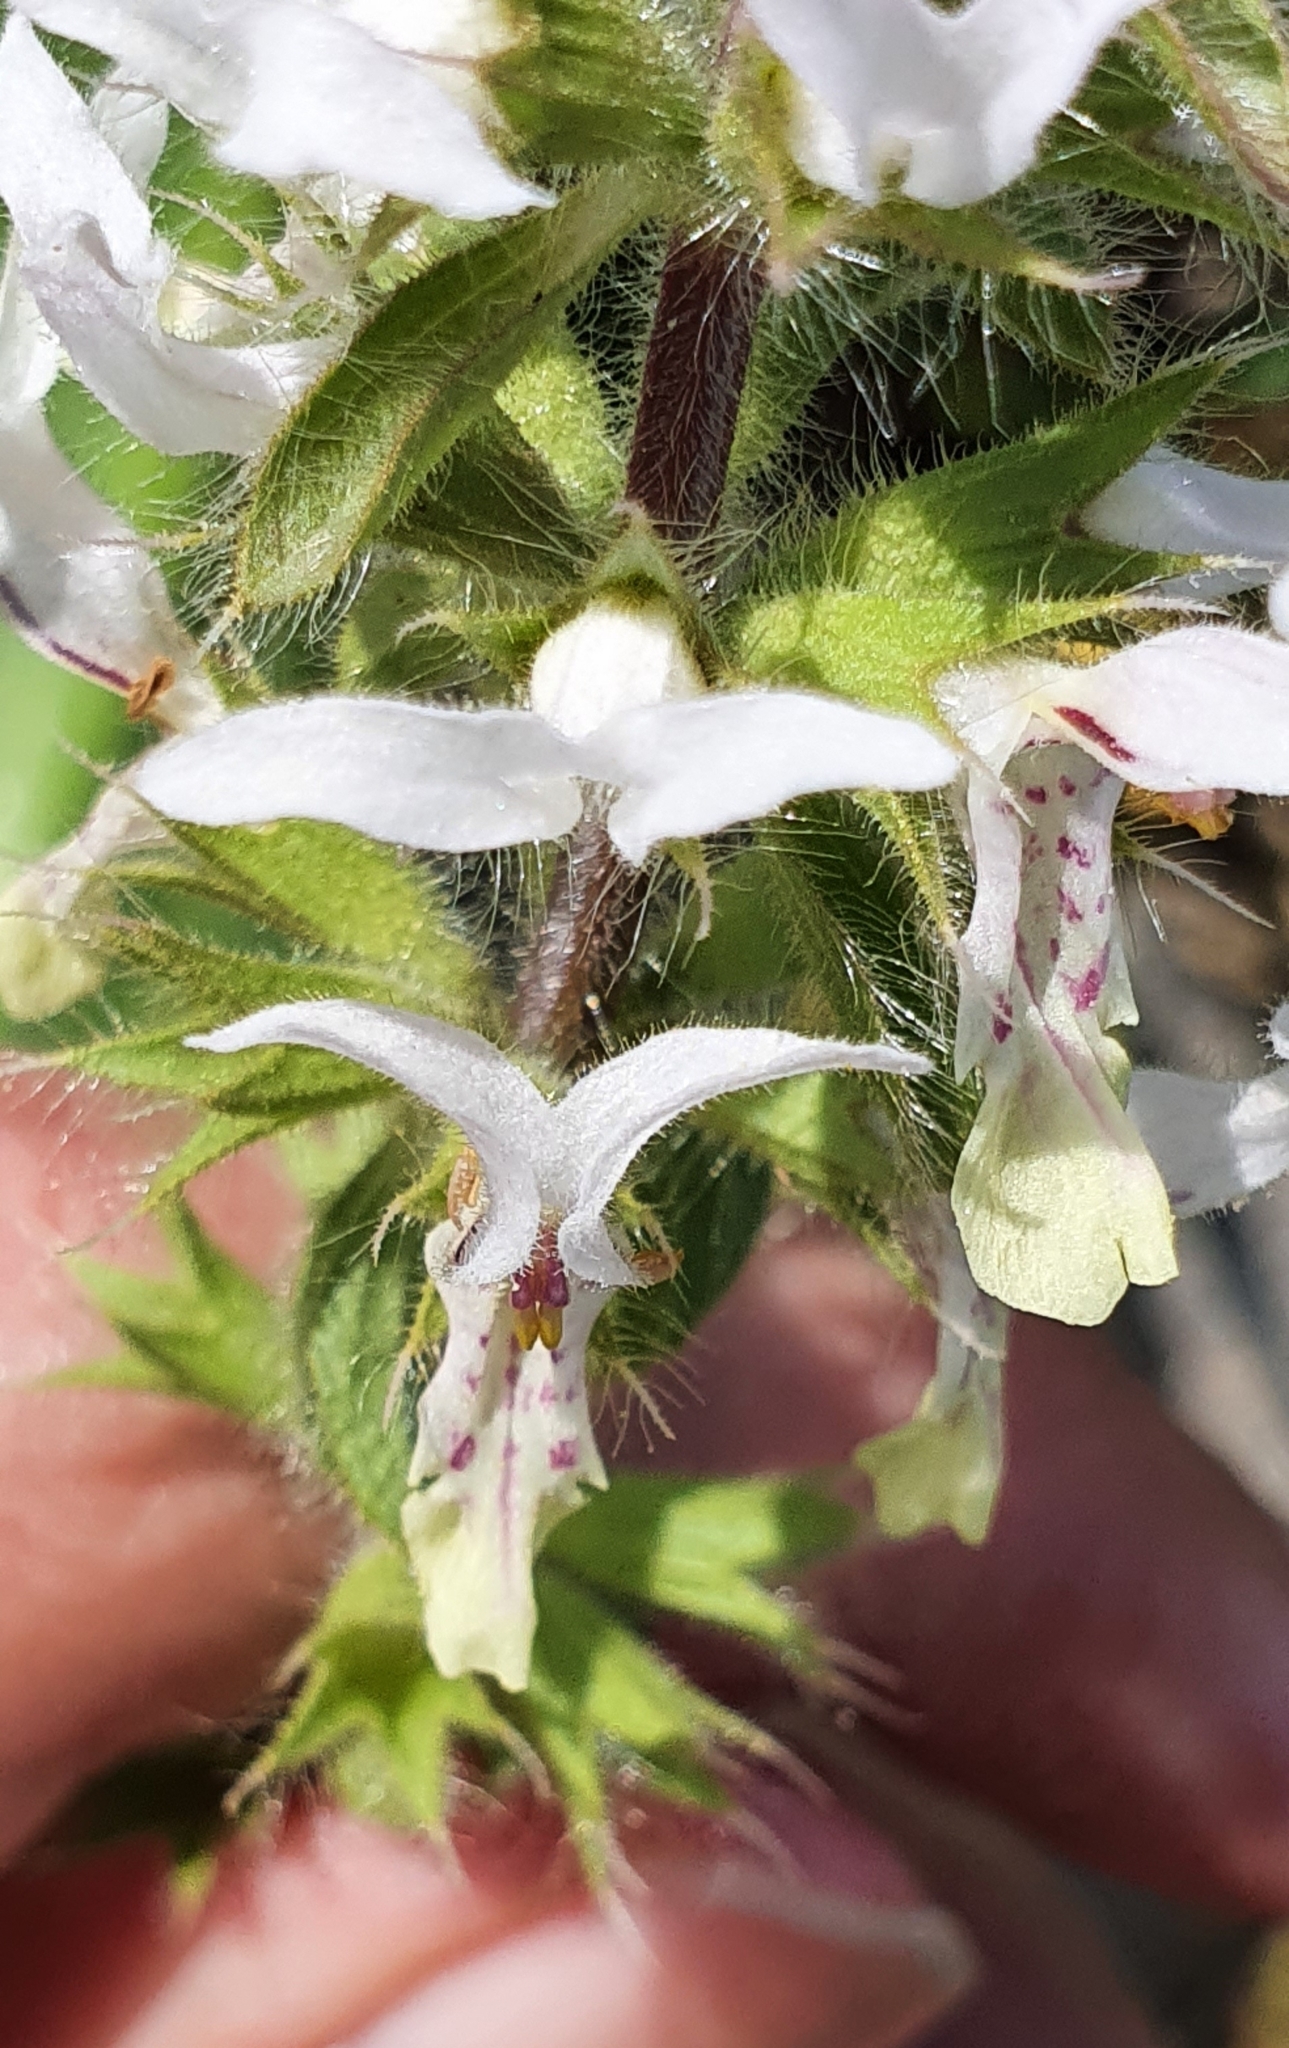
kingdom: Plantae
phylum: Tracheophyta
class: Magnoliopsida
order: Lamiales
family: Lamiaceae
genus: Stachys
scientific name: Stachys ocymastrum
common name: Italian hedgenettle
